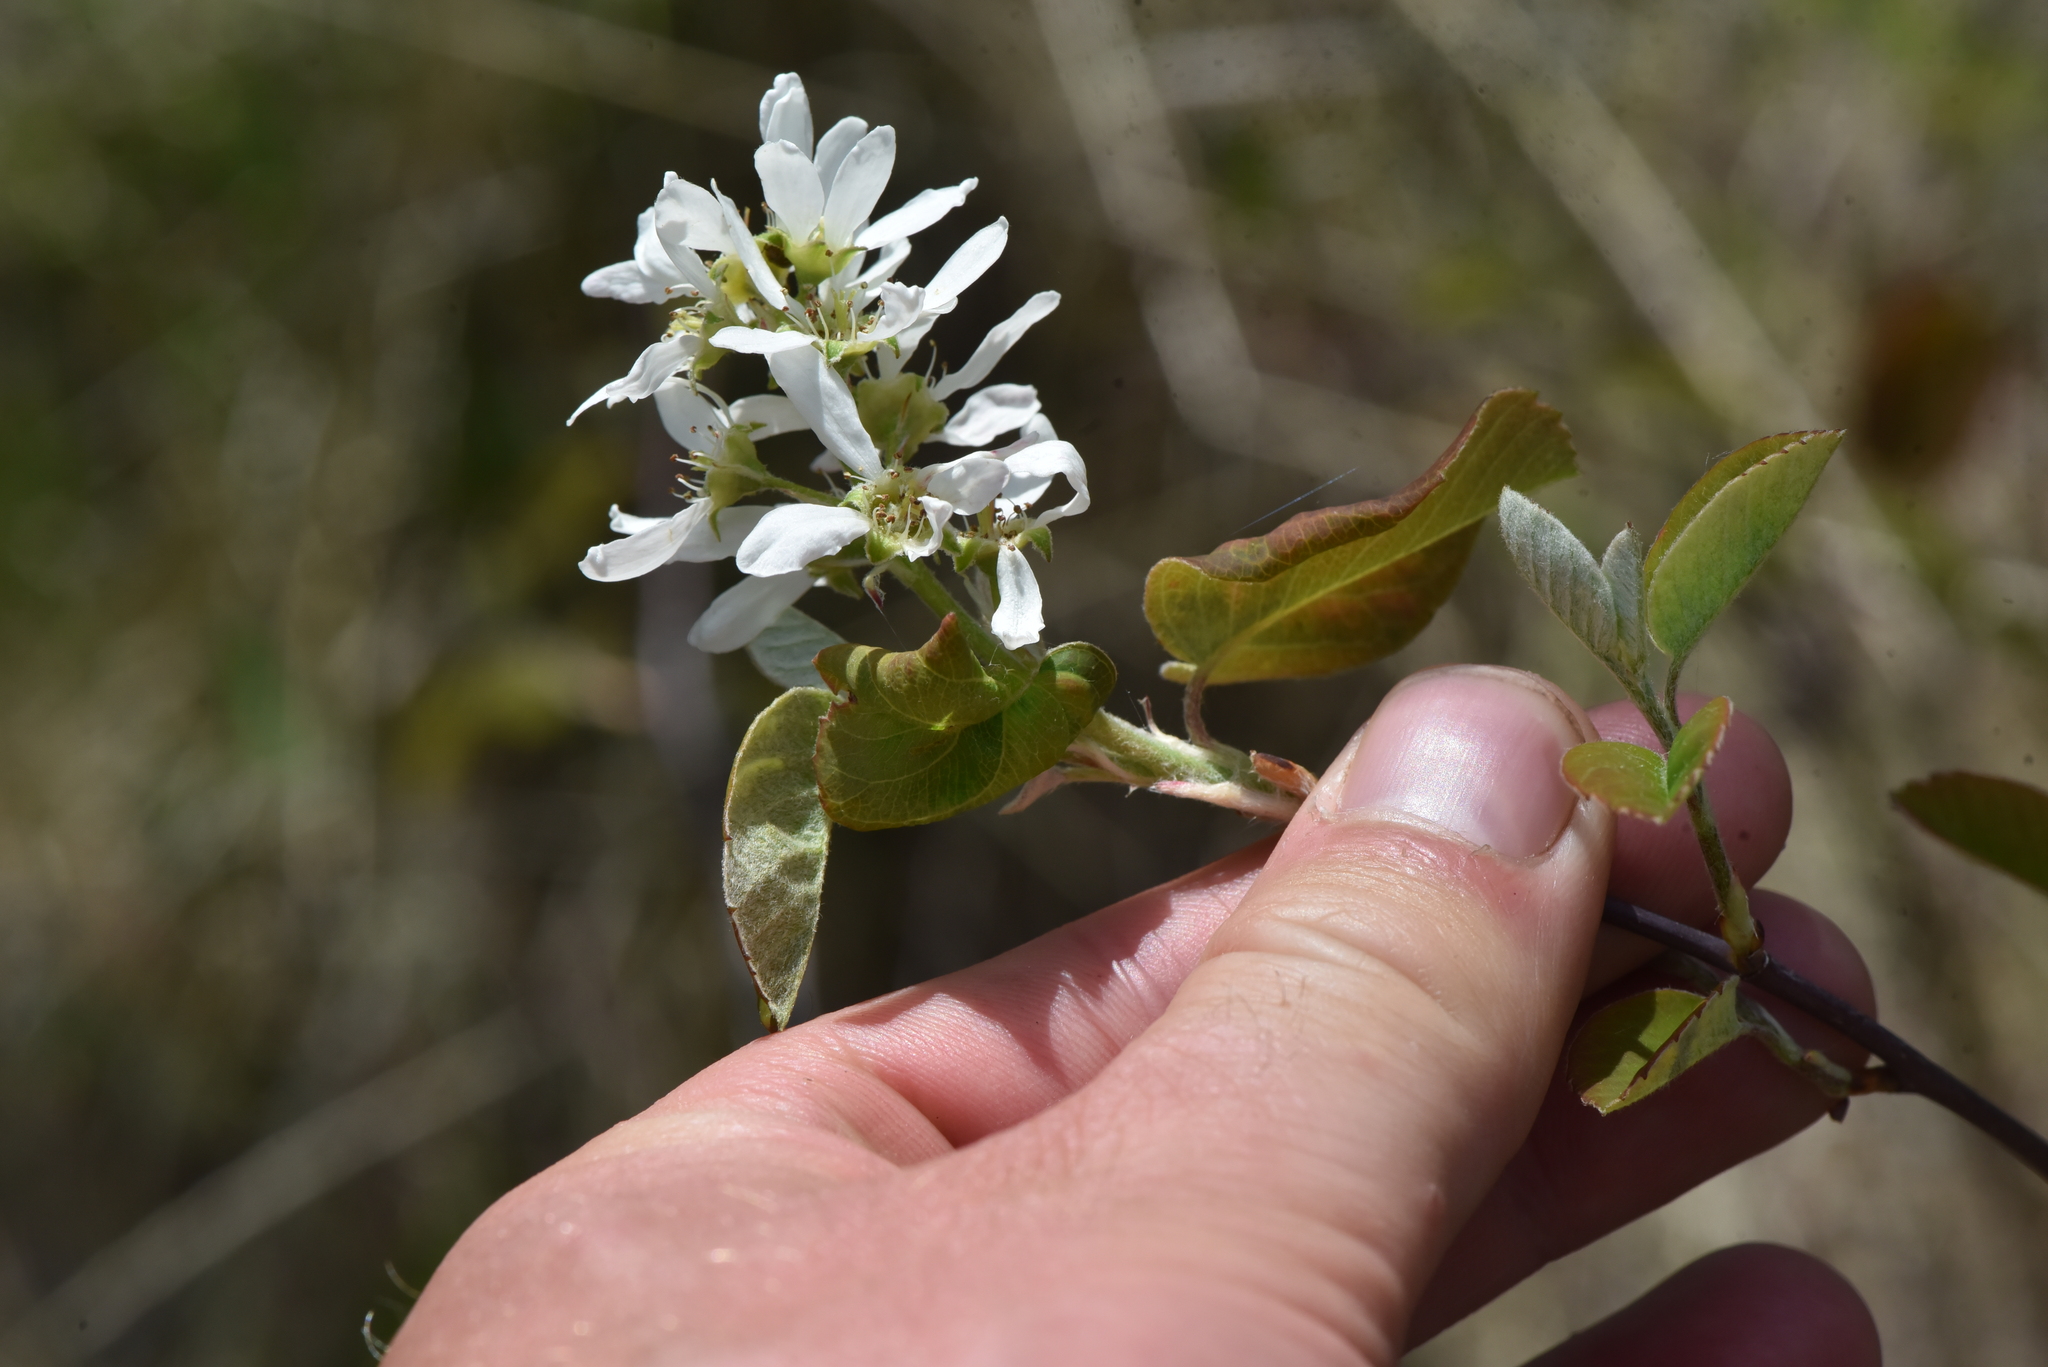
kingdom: Plantae
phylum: Tracheophyta
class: Magnoliopsida
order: Rosales
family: Rosaceae
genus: Amelanchier
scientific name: Amelanchier alnifolia
